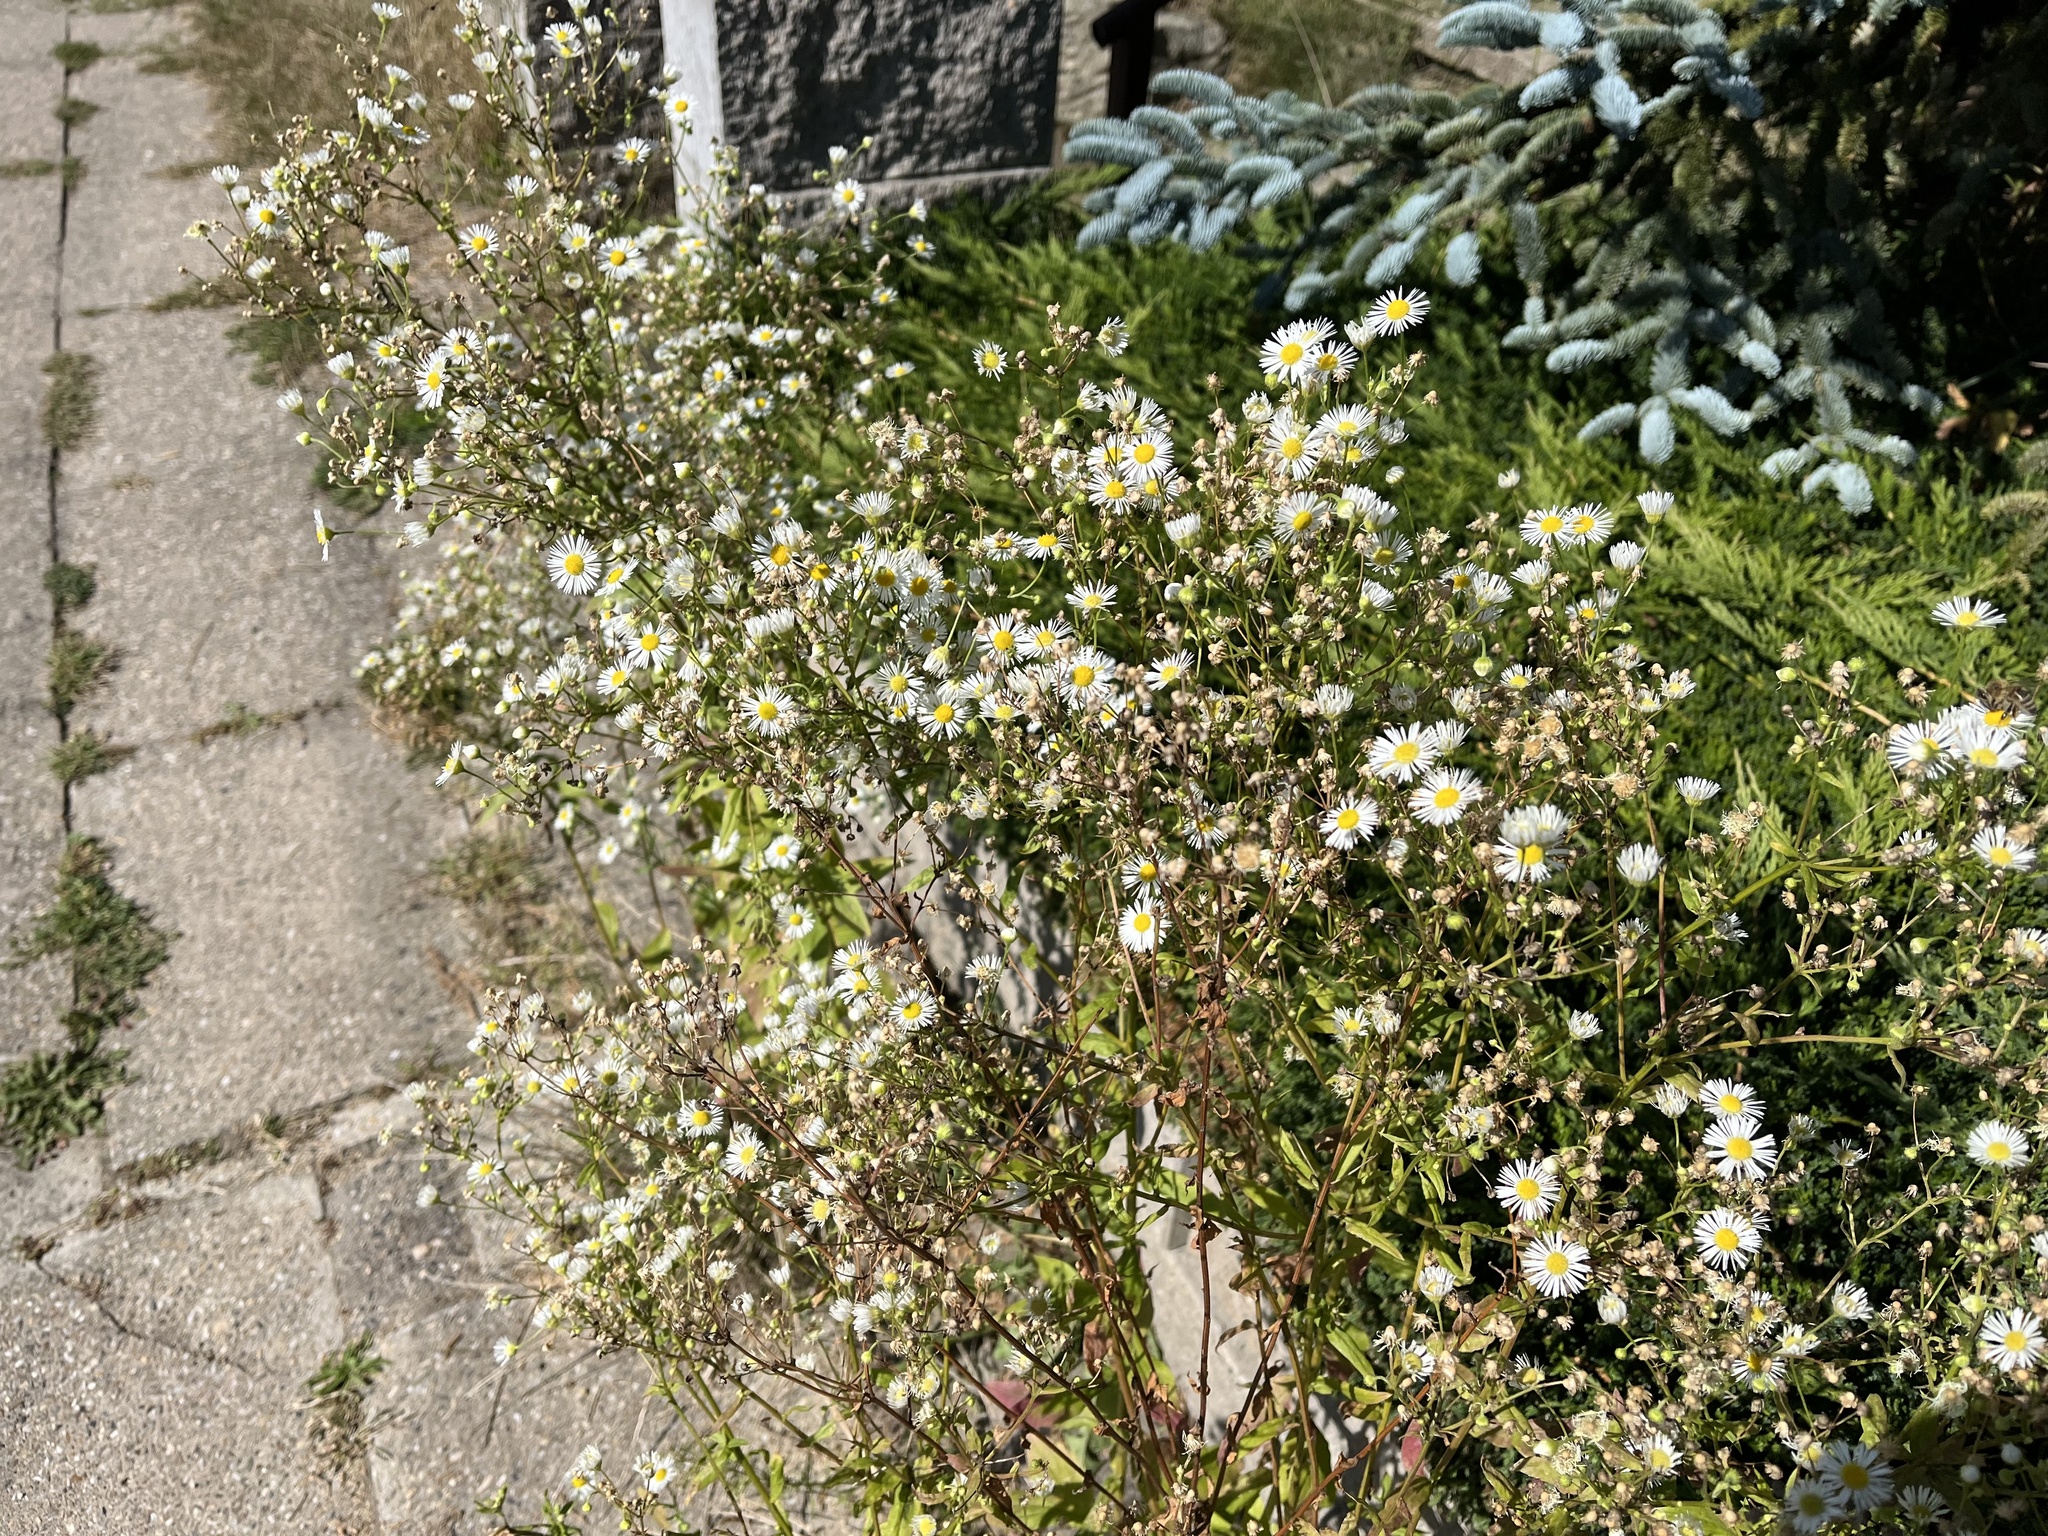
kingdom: Plantae
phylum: Tracheophyta
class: Magnoliopsida
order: Asterales
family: Asteraceae
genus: Erigeron
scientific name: Erigeron annuus
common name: Tall fleabane
